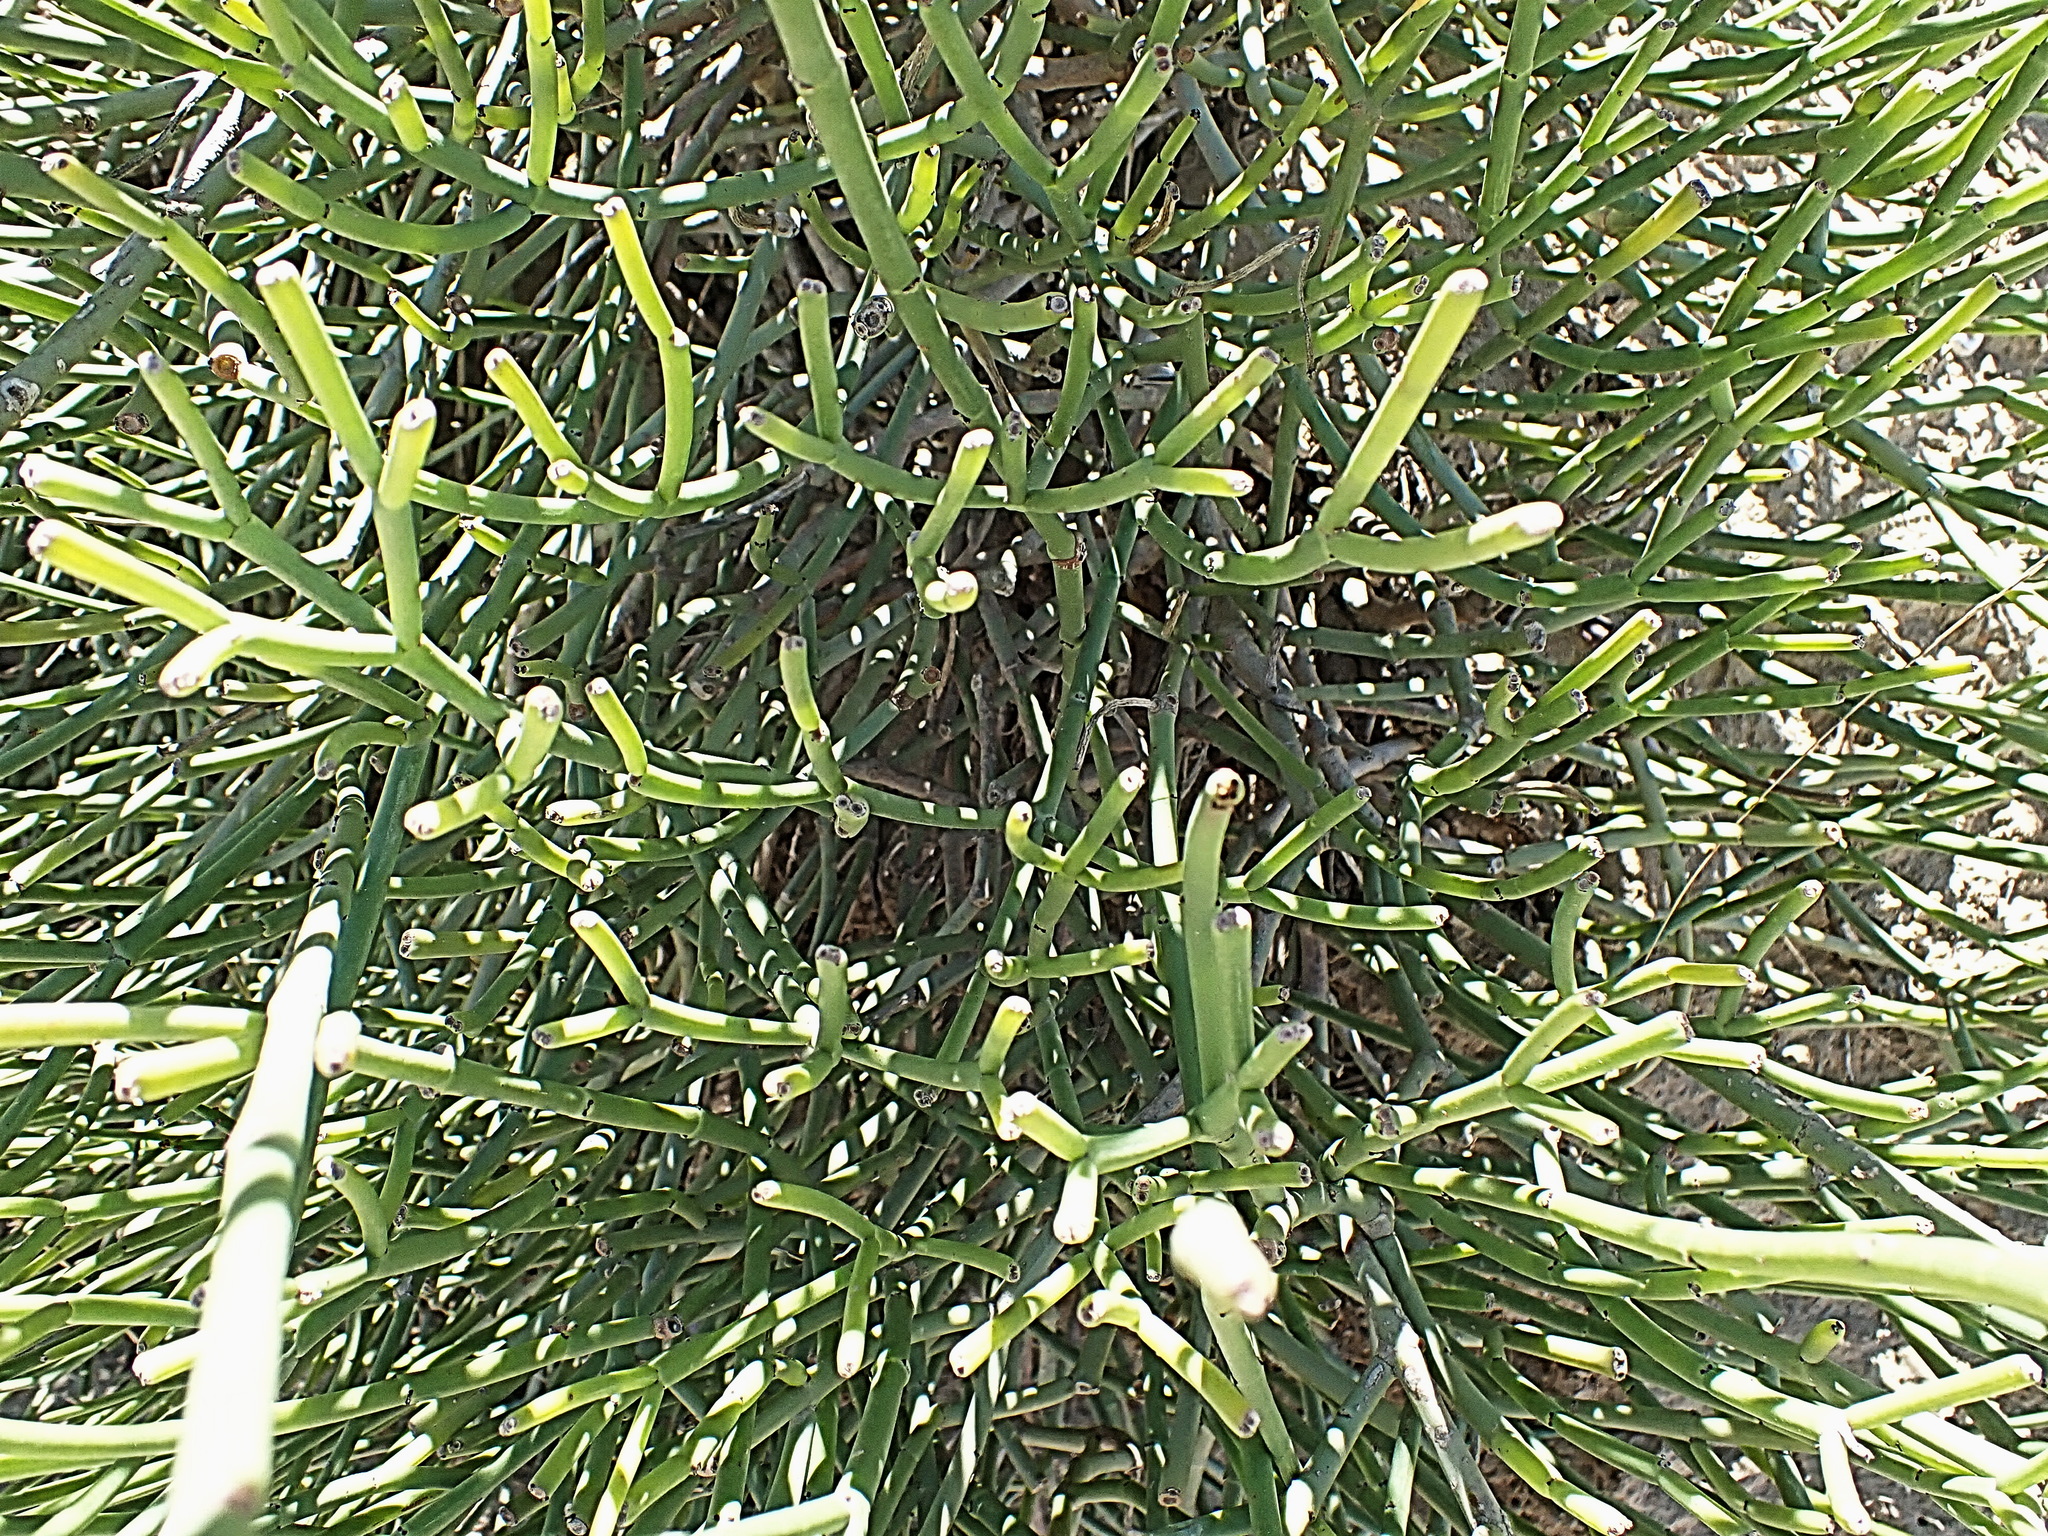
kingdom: Plantae
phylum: Tracheophyta
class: Magnoliopsida
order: Malpighiales
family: Euphorbiaceae
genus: Euphorbia
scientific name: Euphorbia burmanni
